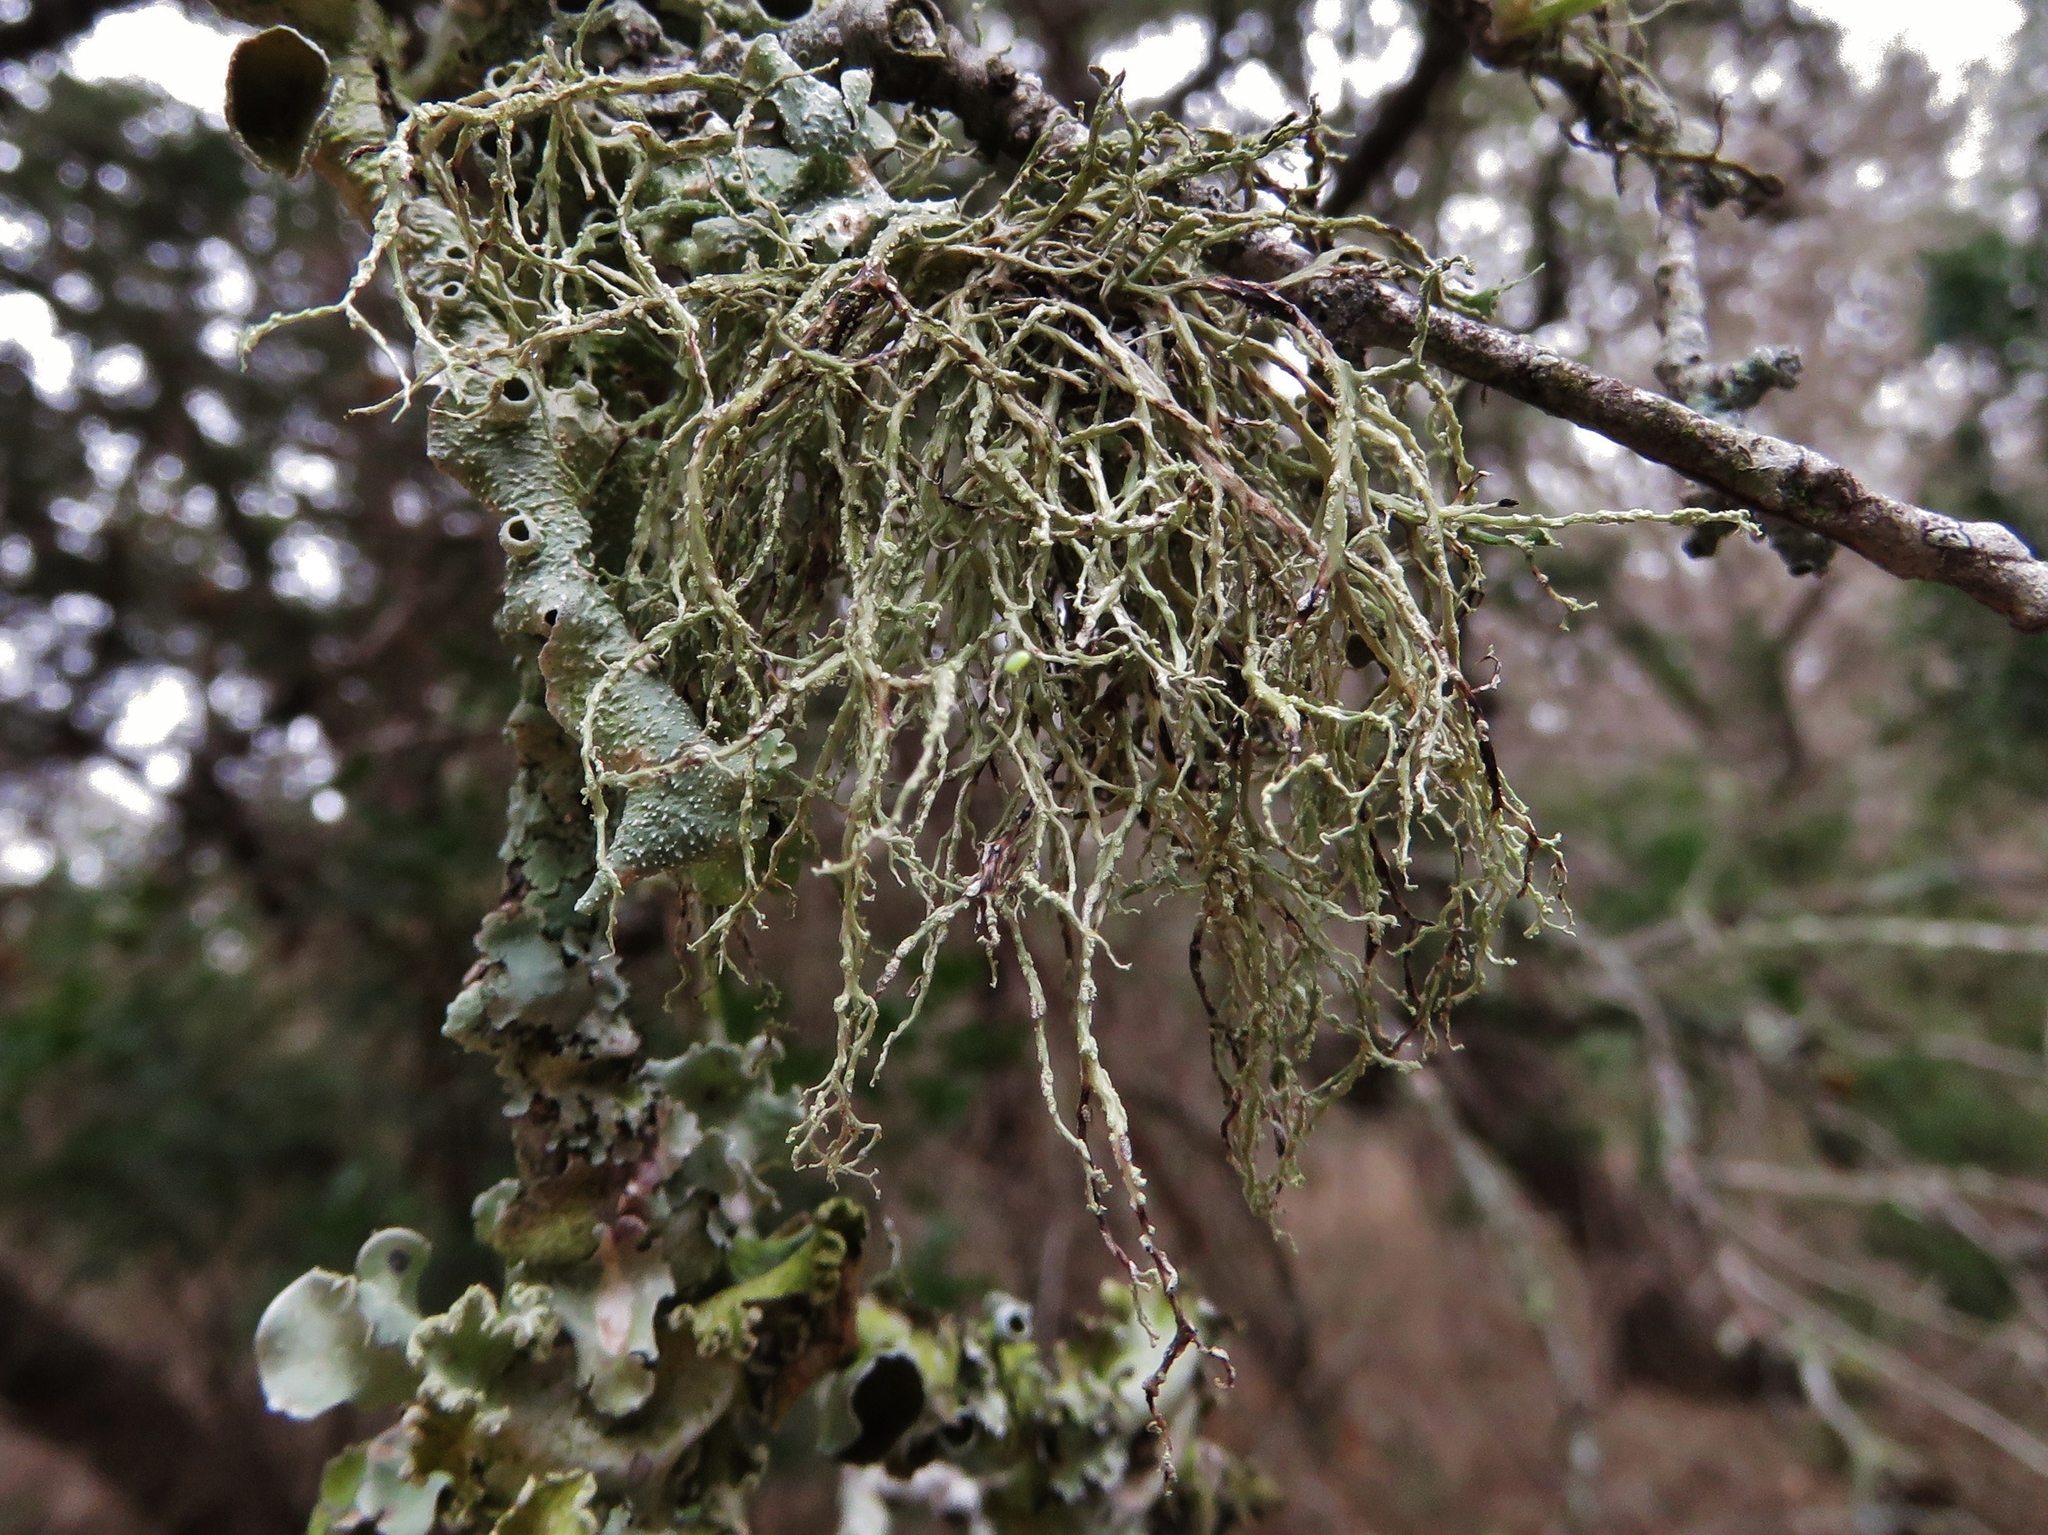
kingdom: Fungi
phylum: Ascomycota
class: Lecanoromycetes
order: Lecanorales
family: Ramalinaceae
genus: Ramalina
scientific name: Ramalina farinacea
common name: Farinose cartilage lichen
